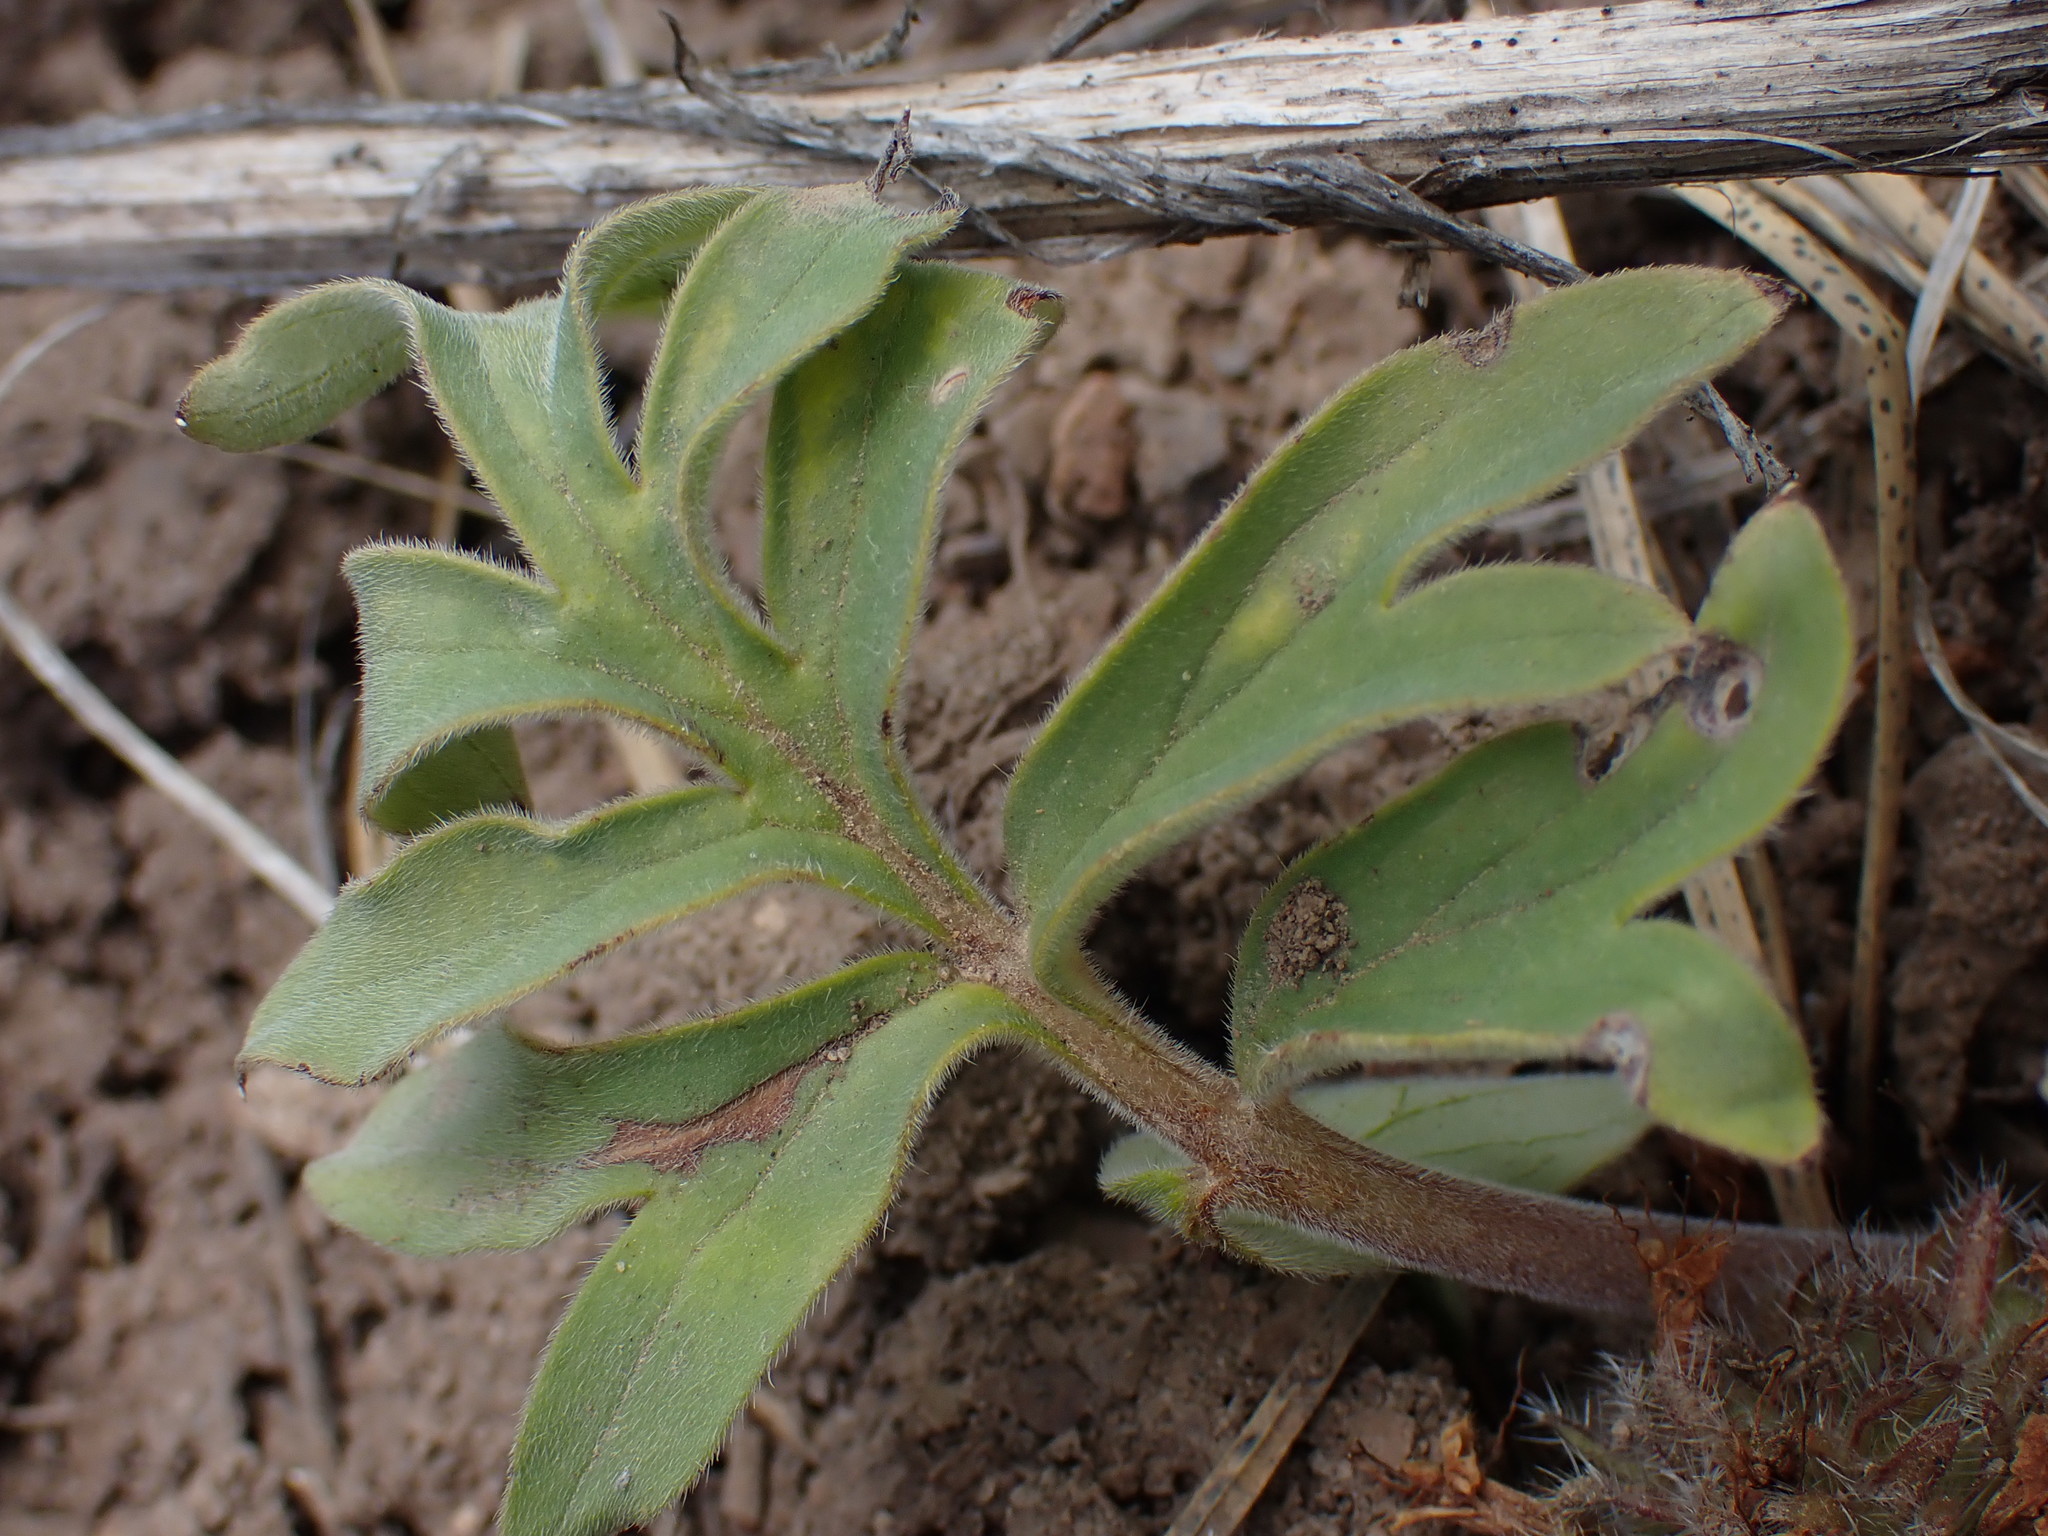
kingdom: Plantae
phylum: Tracheophyta
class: Magnoliopsida
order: Boraginales
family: Hydrophyllaceae
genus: Hydrophyllum
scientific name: Hydrophyllum capitatum
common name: Woollen-breeches
